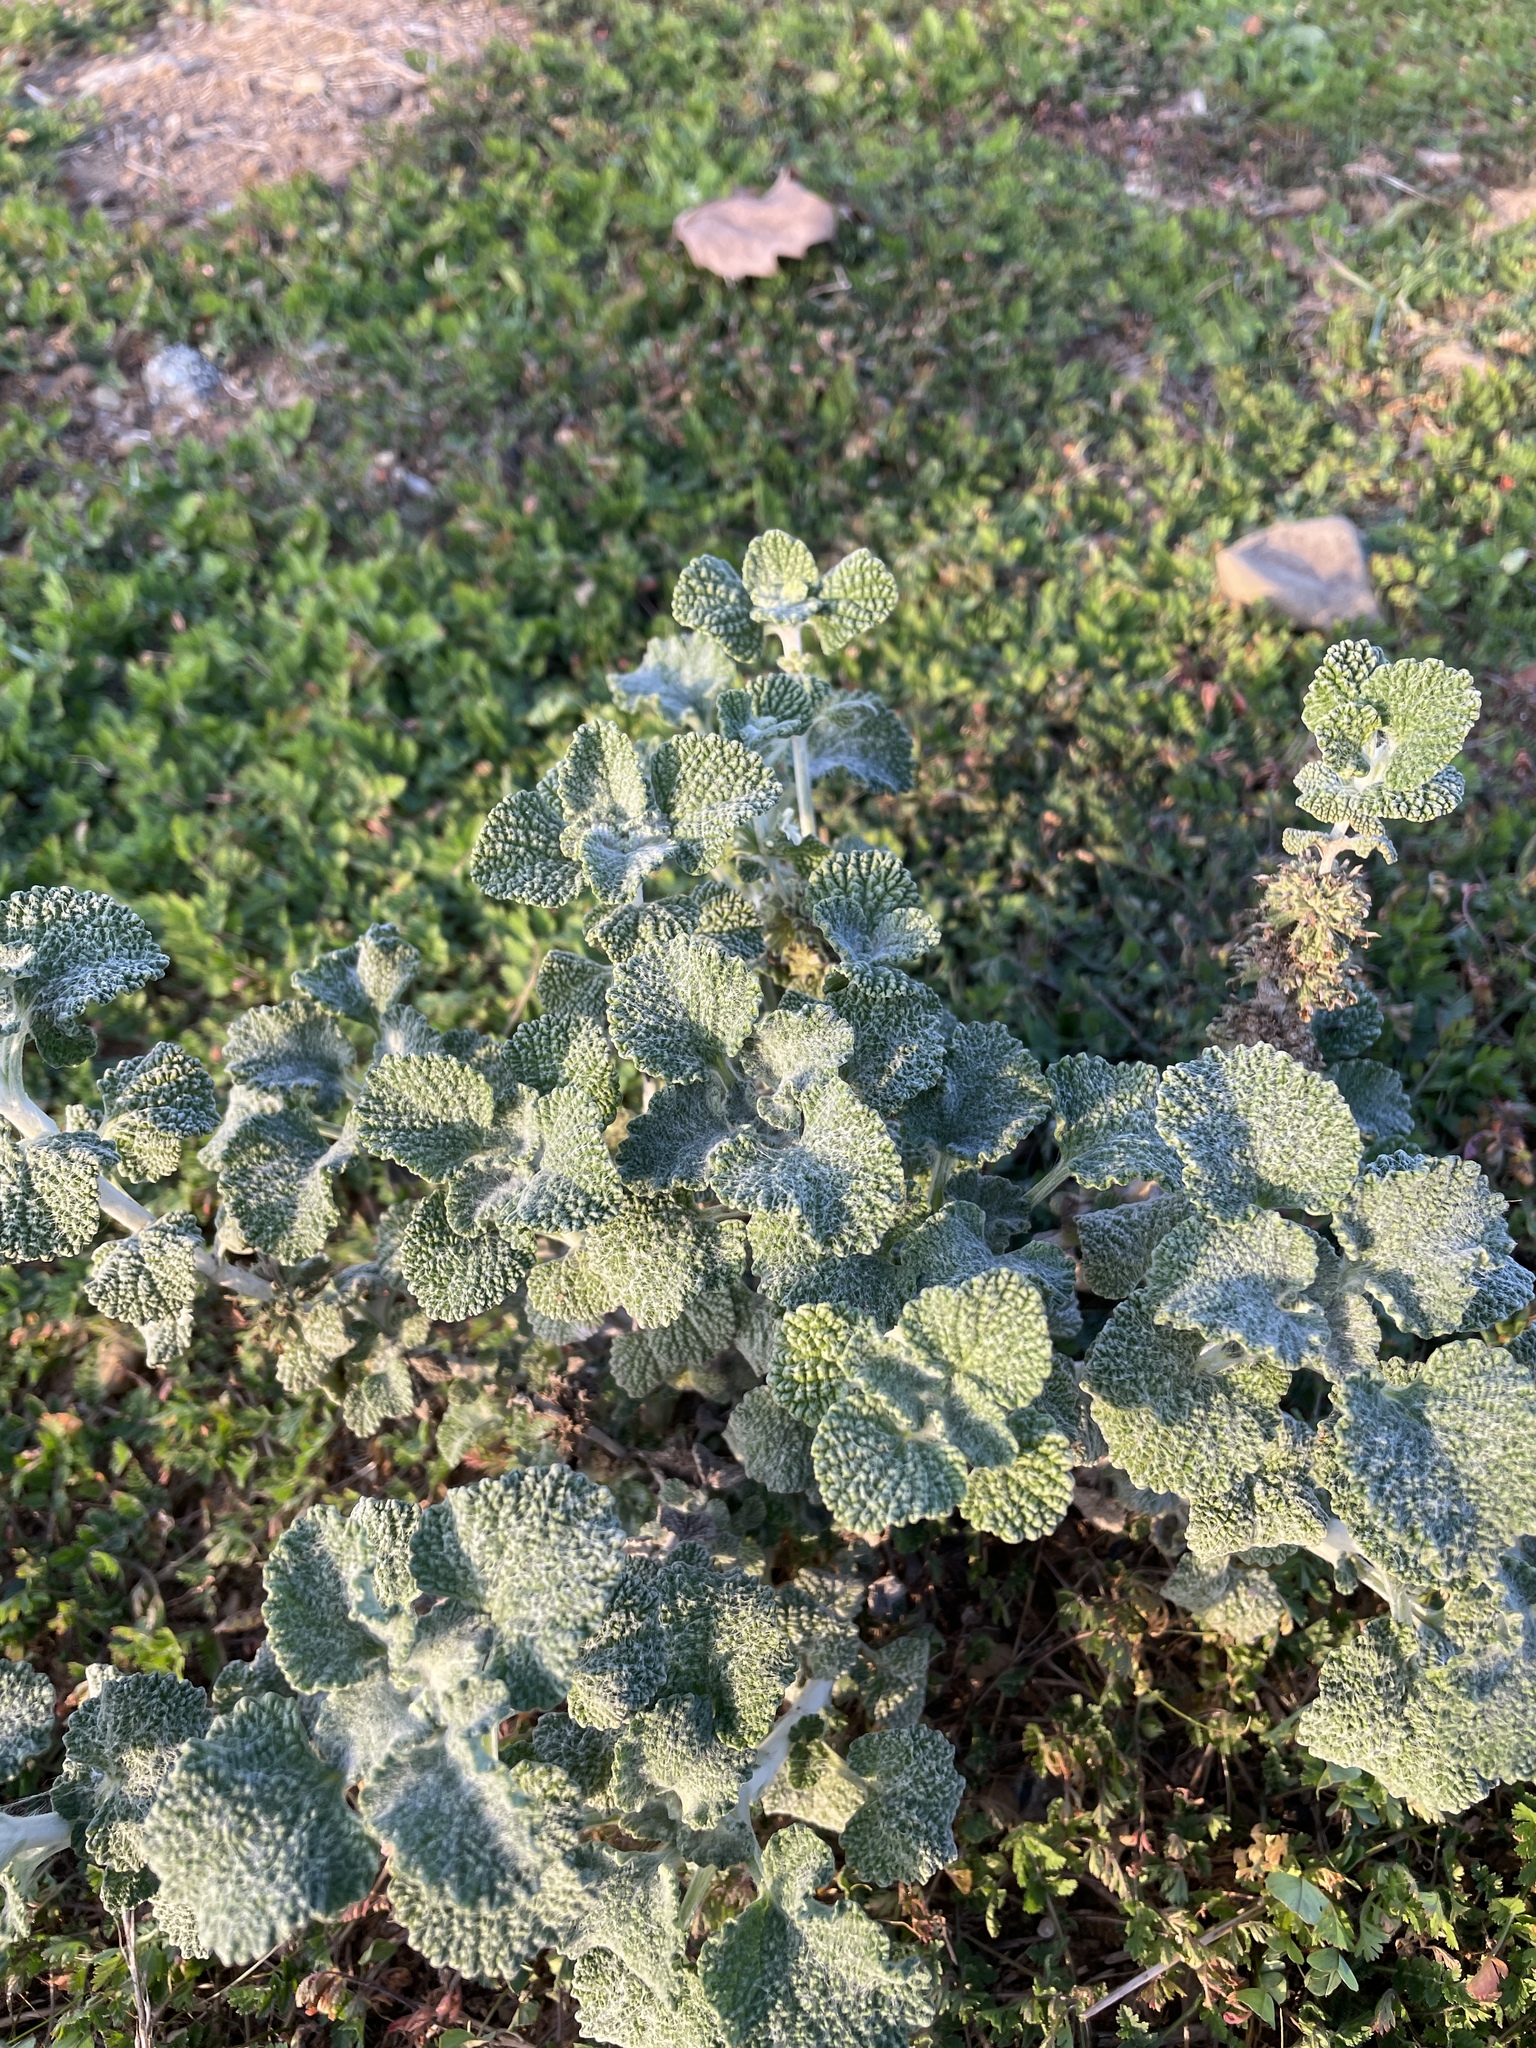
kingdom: Plantae
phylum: Tracheophyta
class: Magnoliopsida
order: Lamiales
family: Lamiaceae
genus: Marrubium
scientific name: Marrubium vulgare
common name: Horehound
